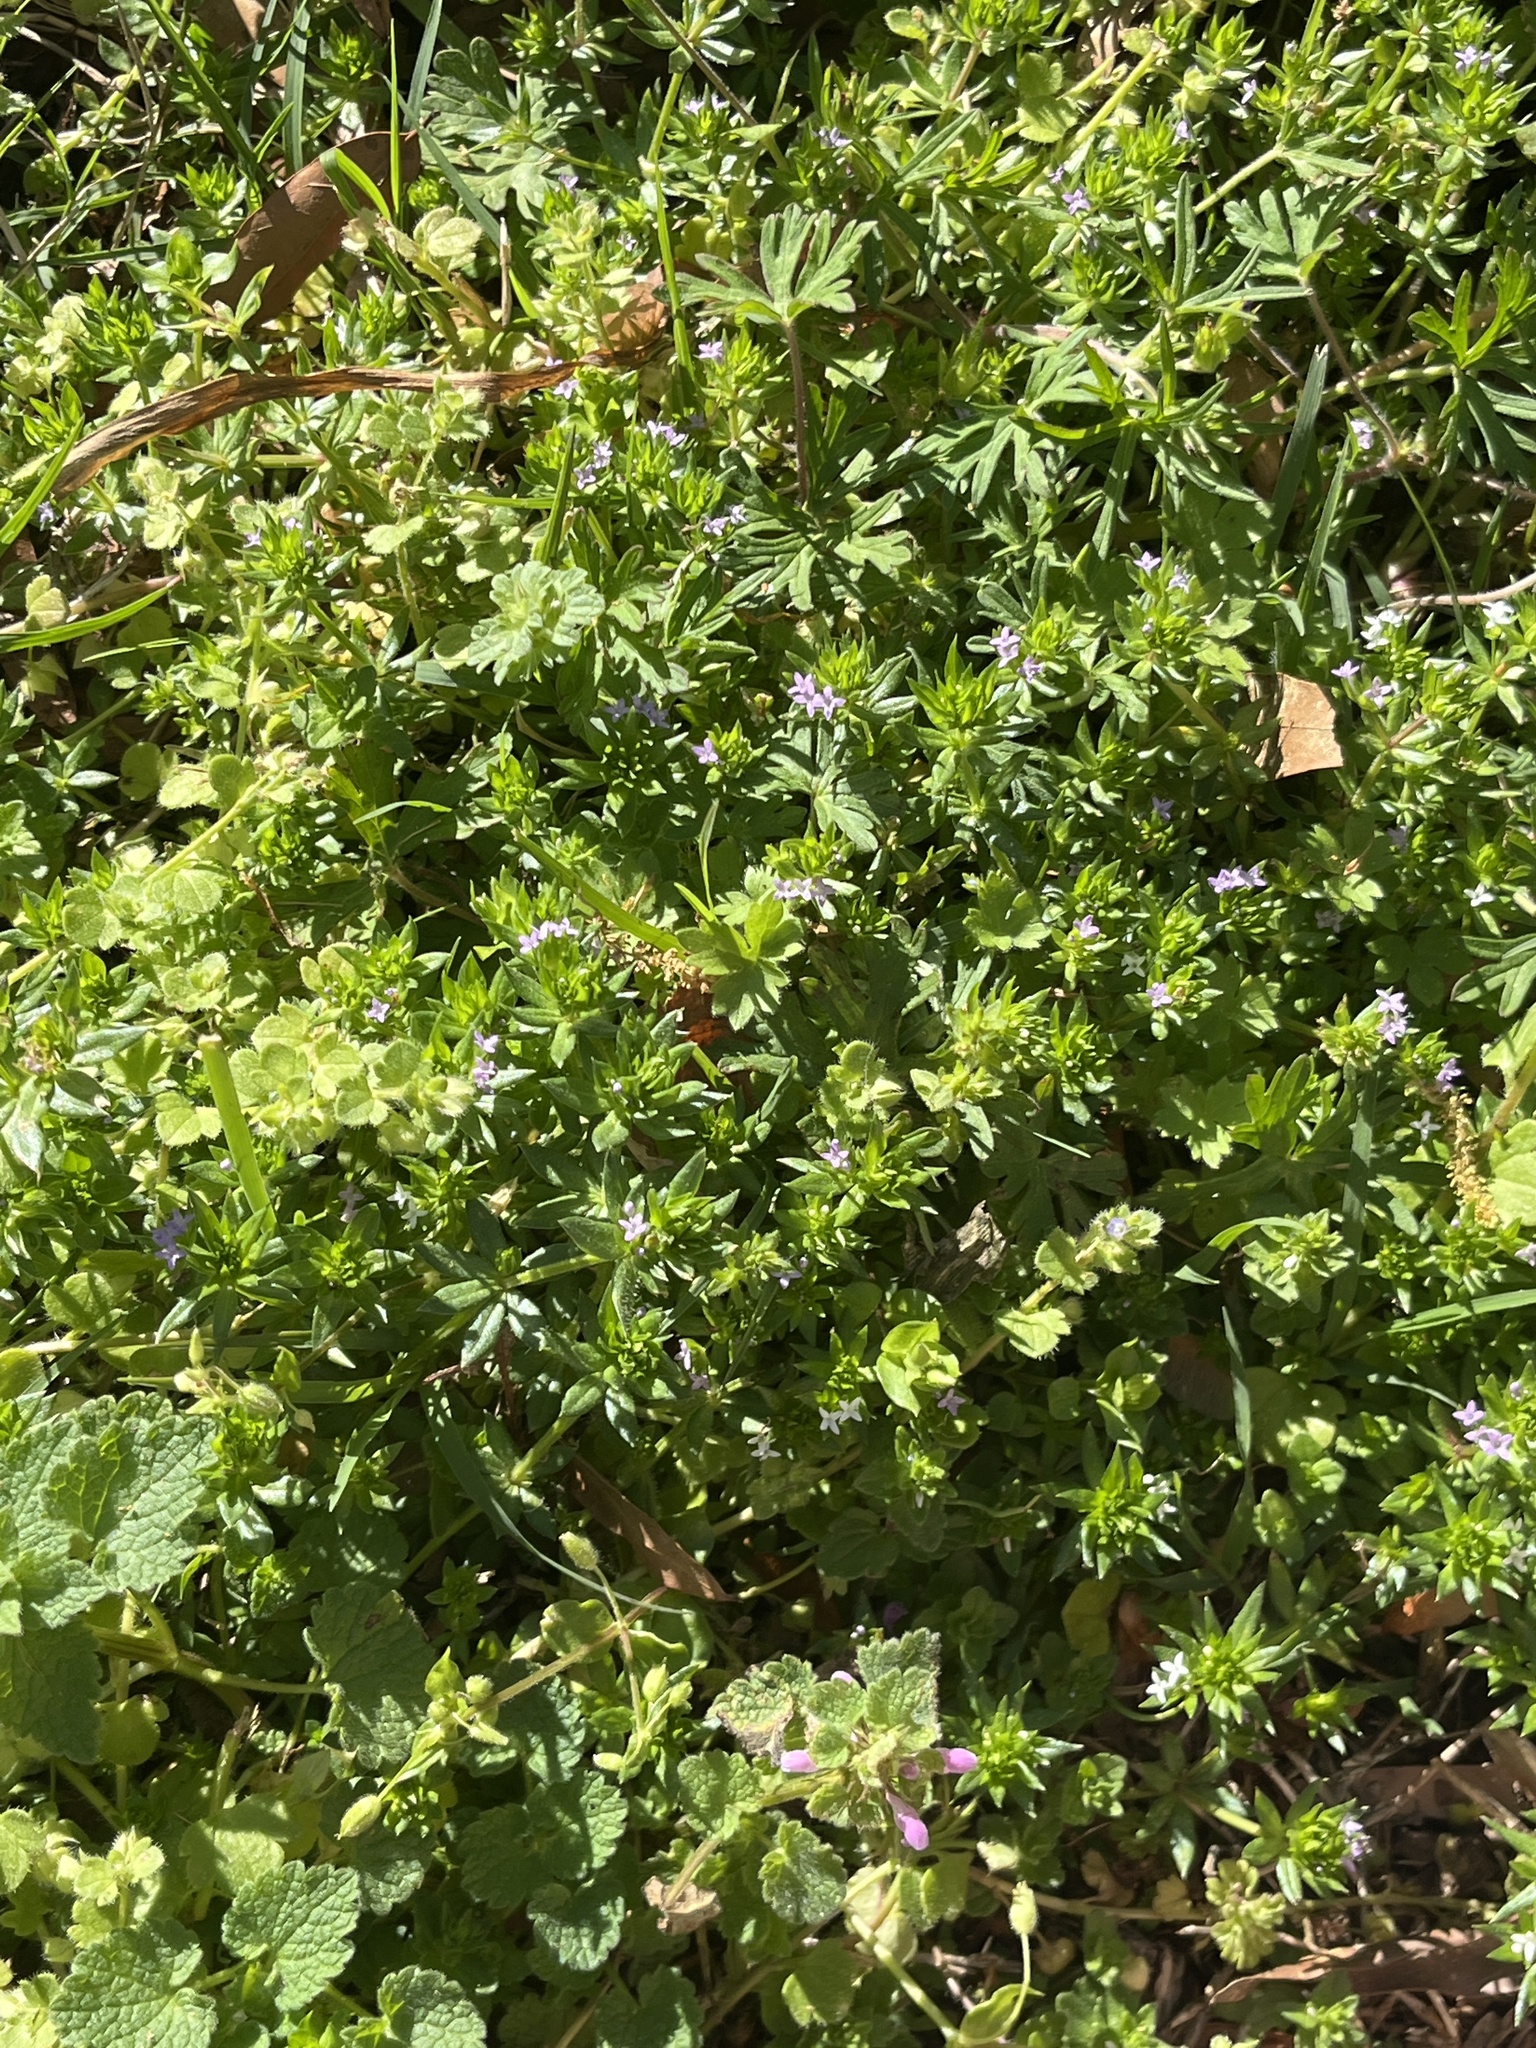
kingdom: Plantae
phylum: Tracheophyta
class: Magnoliopsida
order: Gentianales
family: Rubiaceae
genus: Sherardia
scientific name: Sherardia arvensis
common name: Field madder
